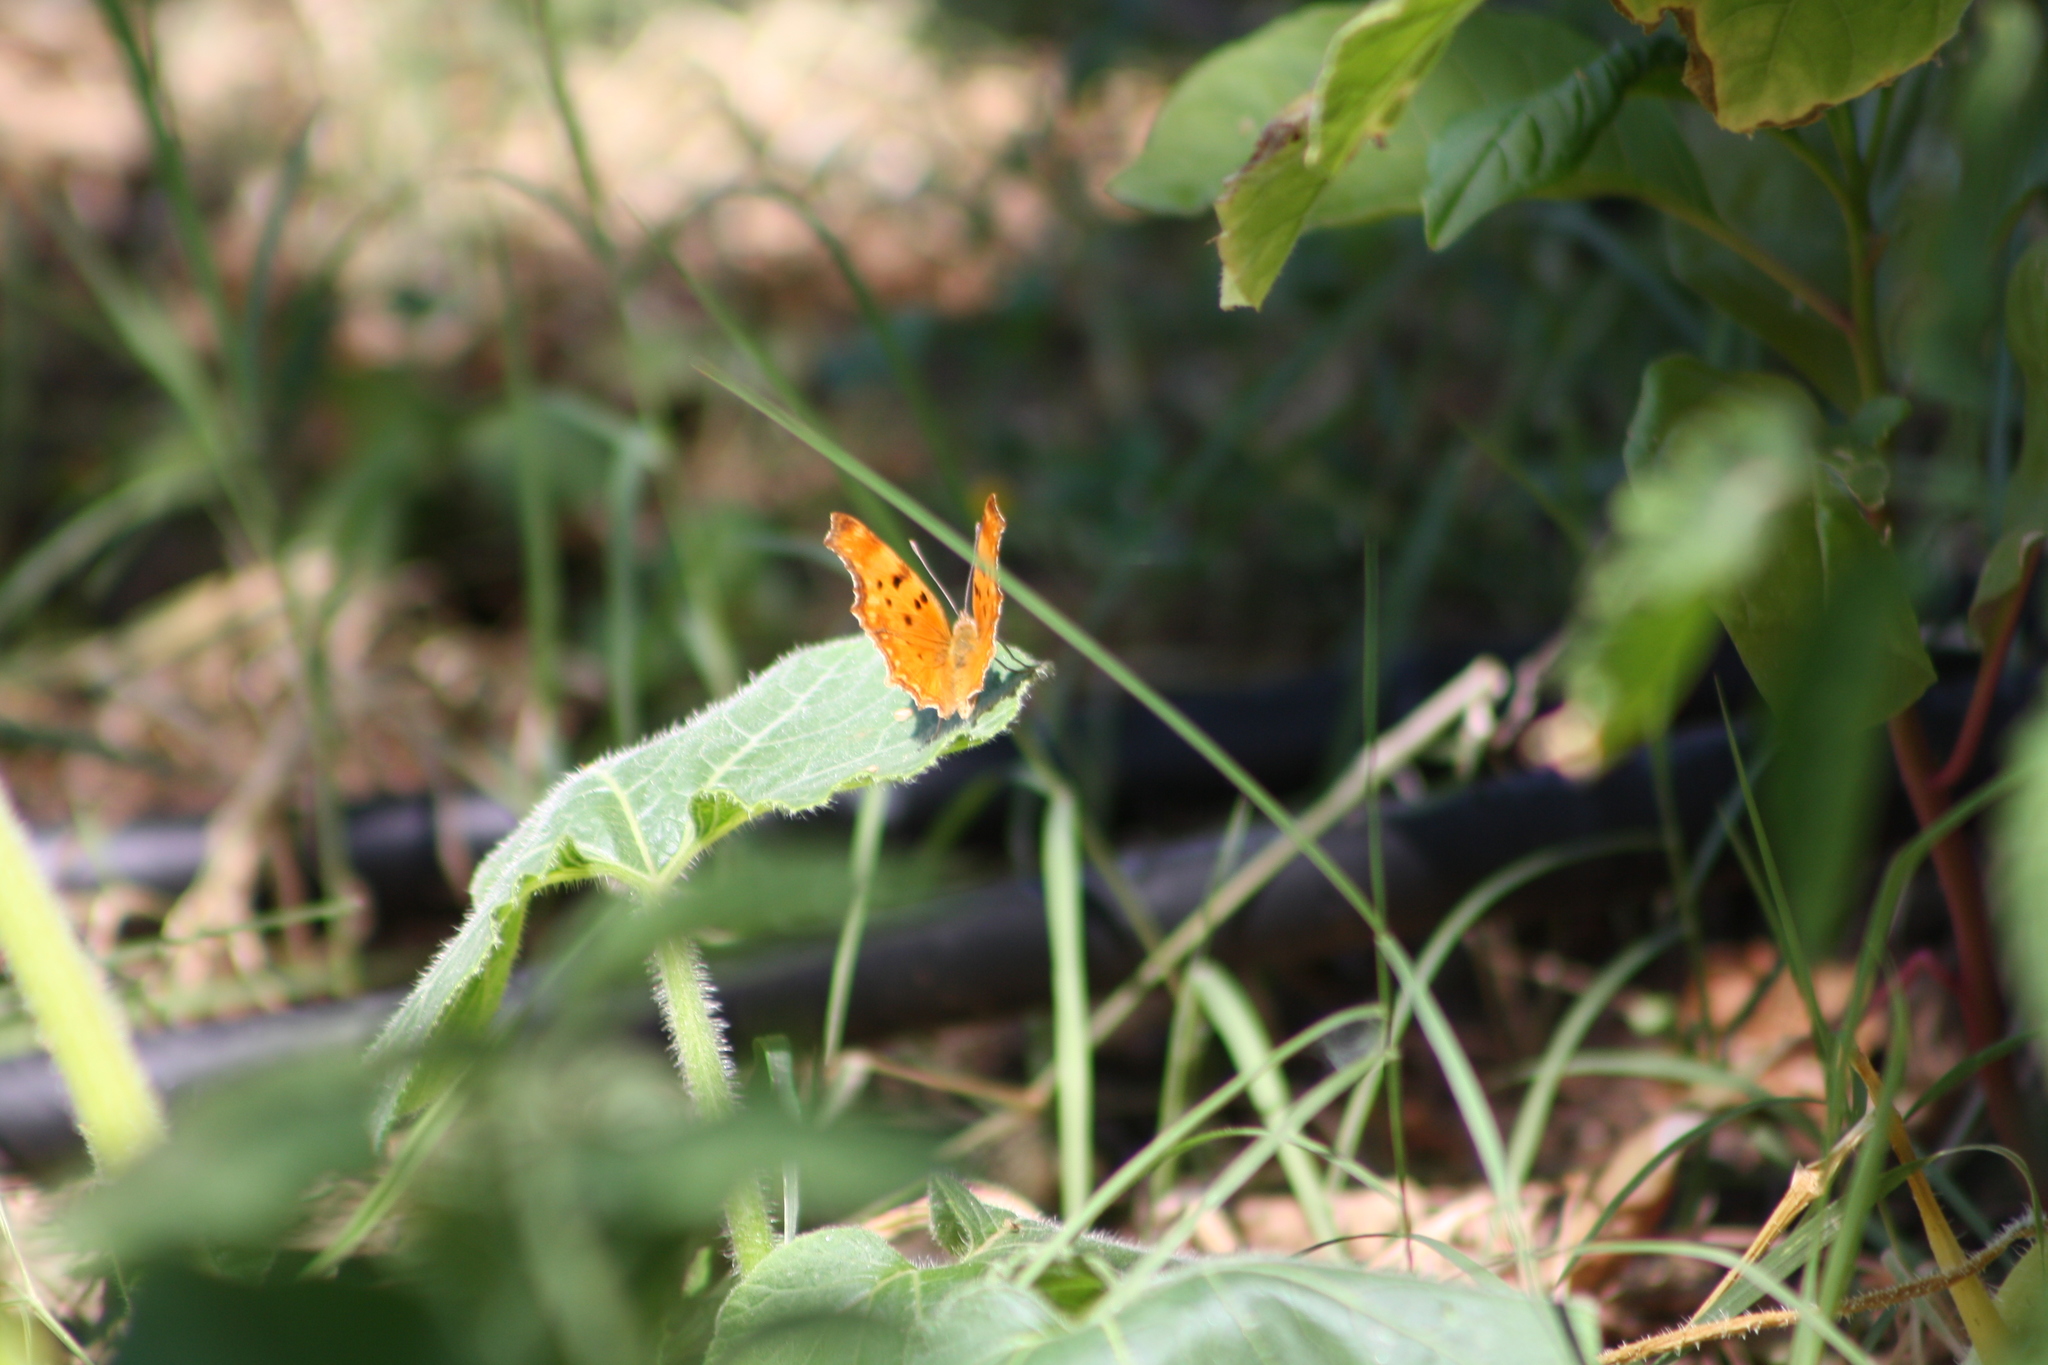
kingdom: Animalia
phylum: Arthropoda
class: Insecta
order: Lepidoptera
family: Nymphalidae
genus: Polygonia
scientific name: Polygonia egea
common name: Southern comma
